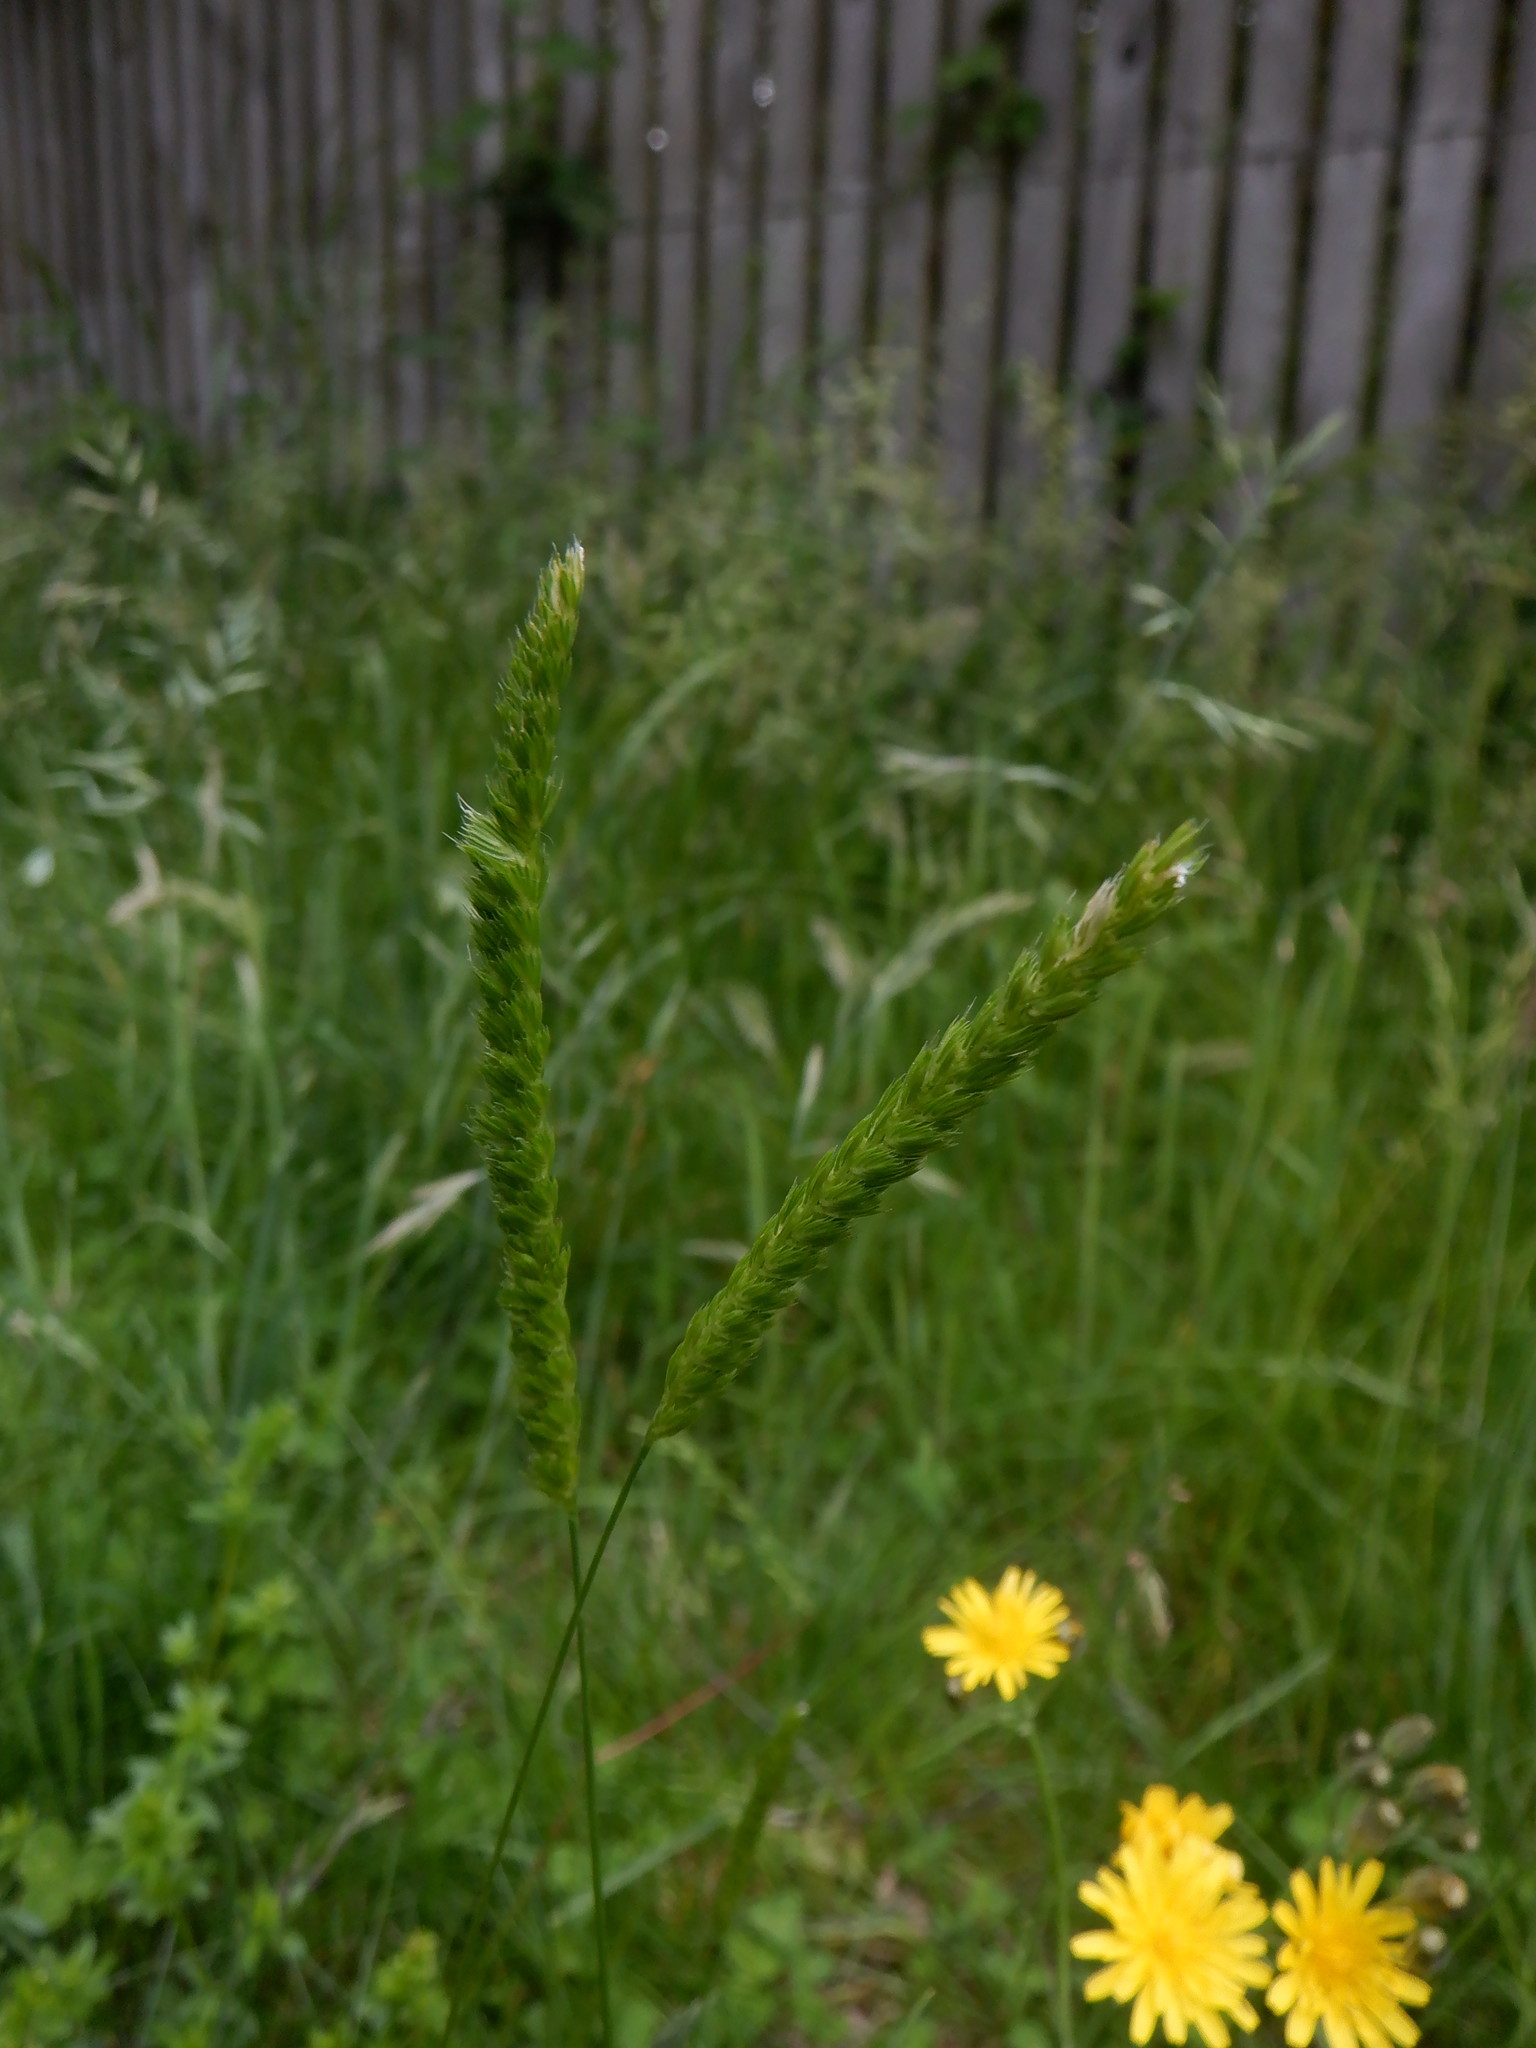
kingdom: Plantae
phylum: Tracheophyta
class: Liliopsida
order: Poales
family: Poaceae
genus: Cynosurus
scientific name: Cynosurus cristatus
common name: Crested dog's-tail
